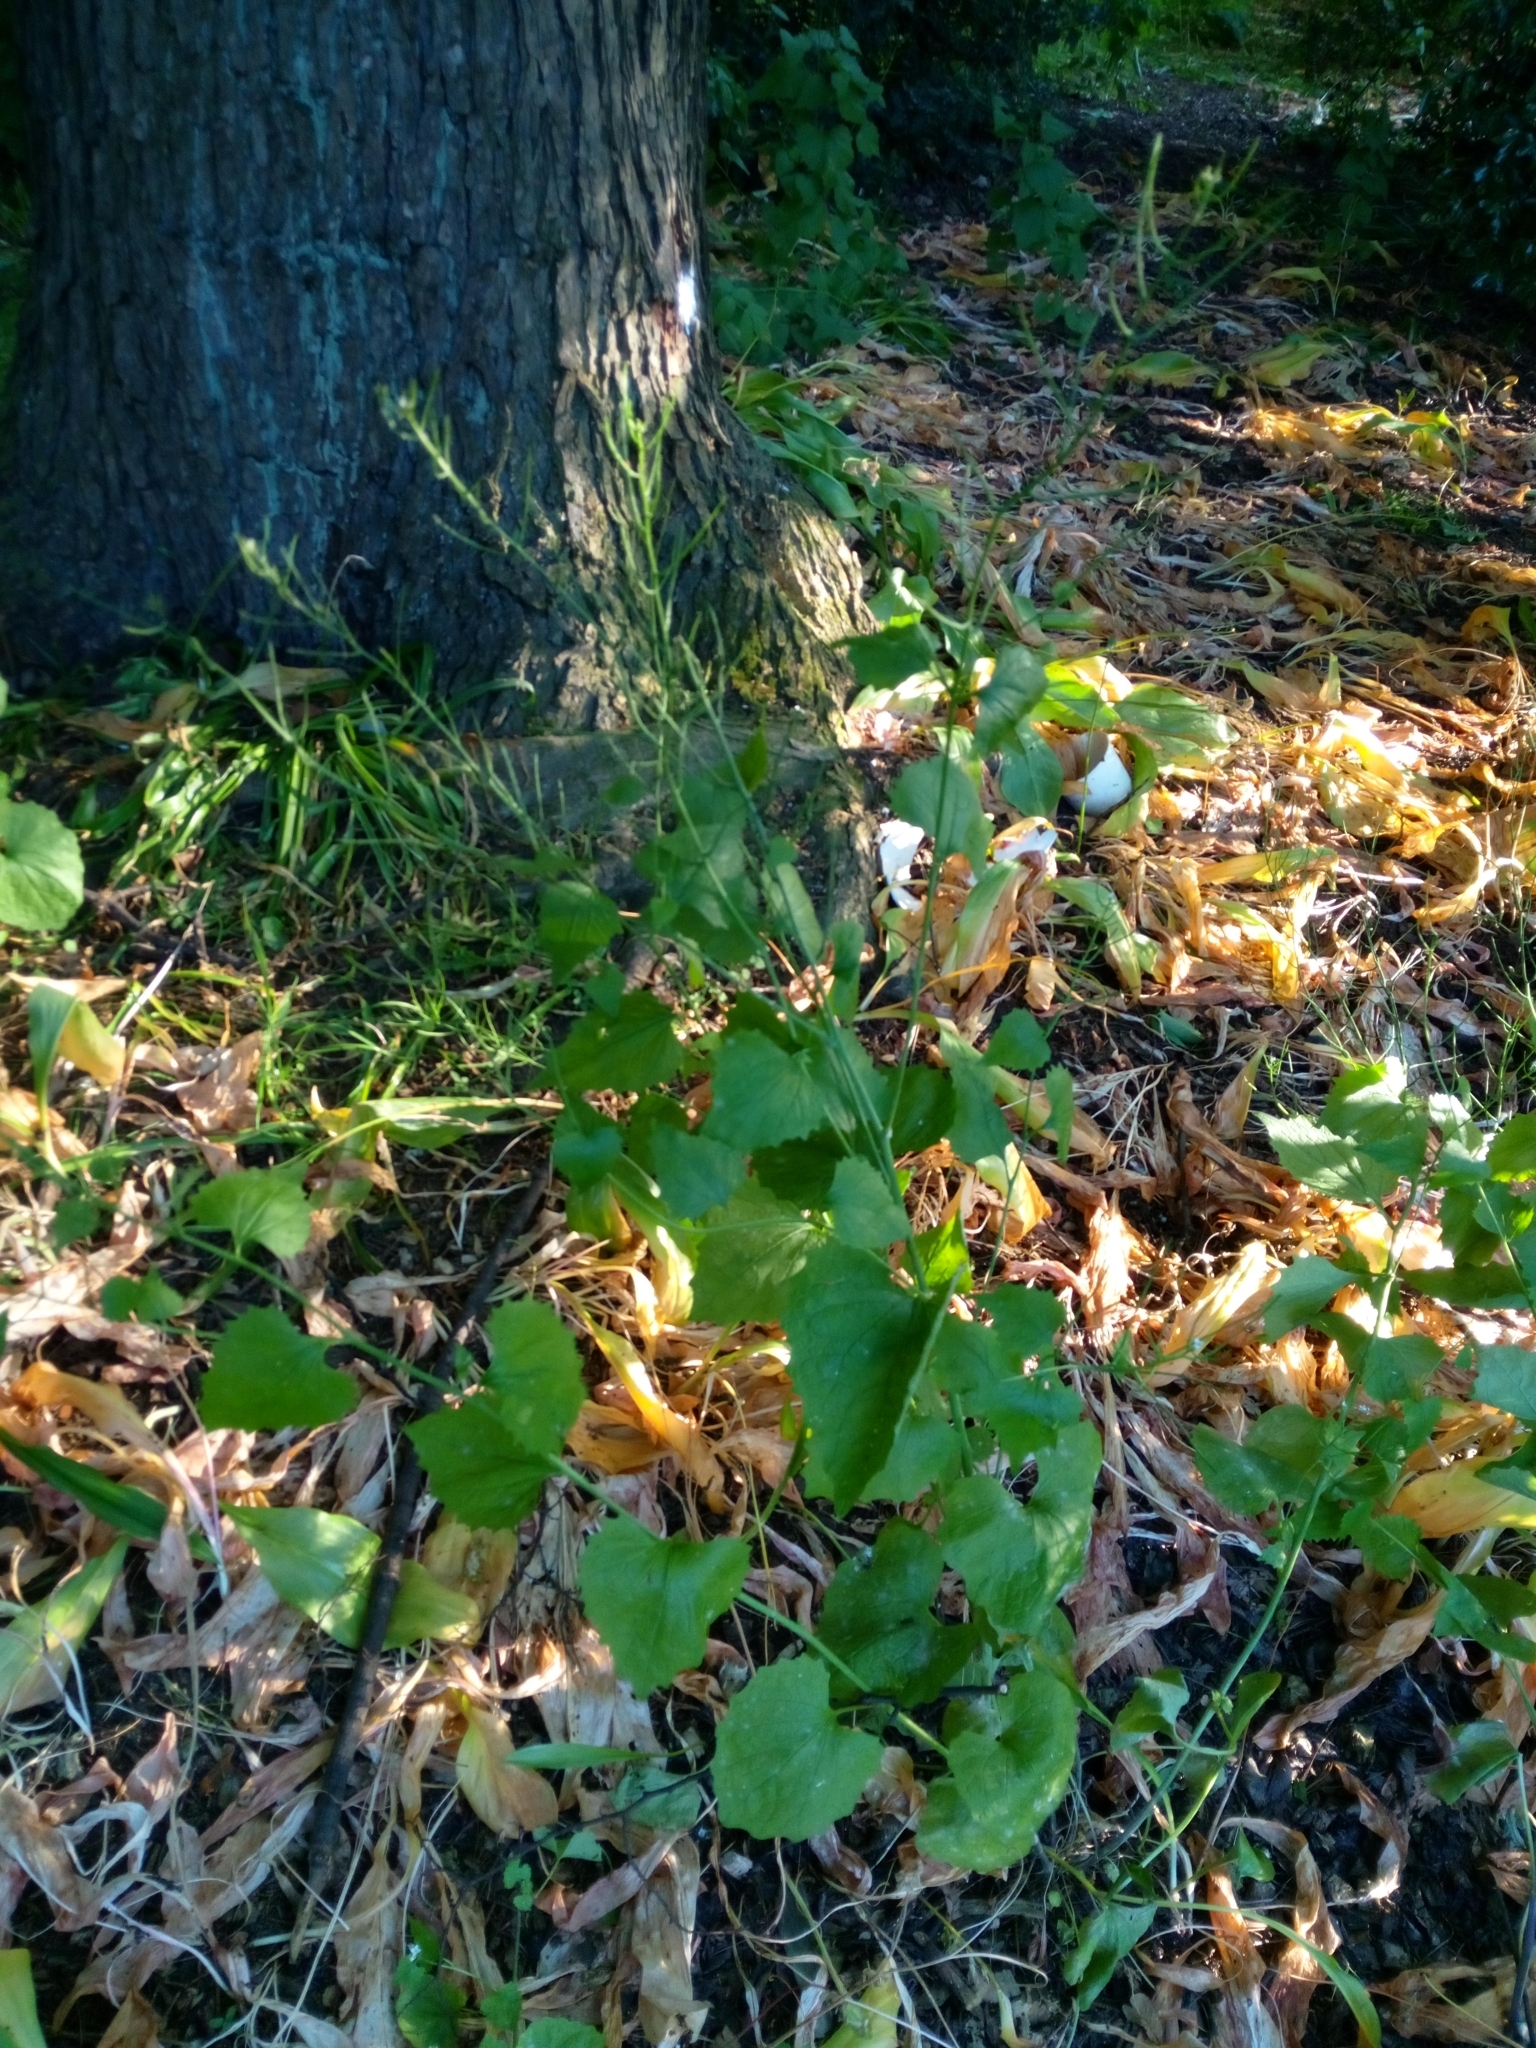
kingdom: Plantae
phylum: Tracheophyta
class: Magnoliopsida
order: Brassicales
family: Brassicaceae
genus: Alliaria
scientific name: Alliaria petiolata
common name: Garlic mustard
